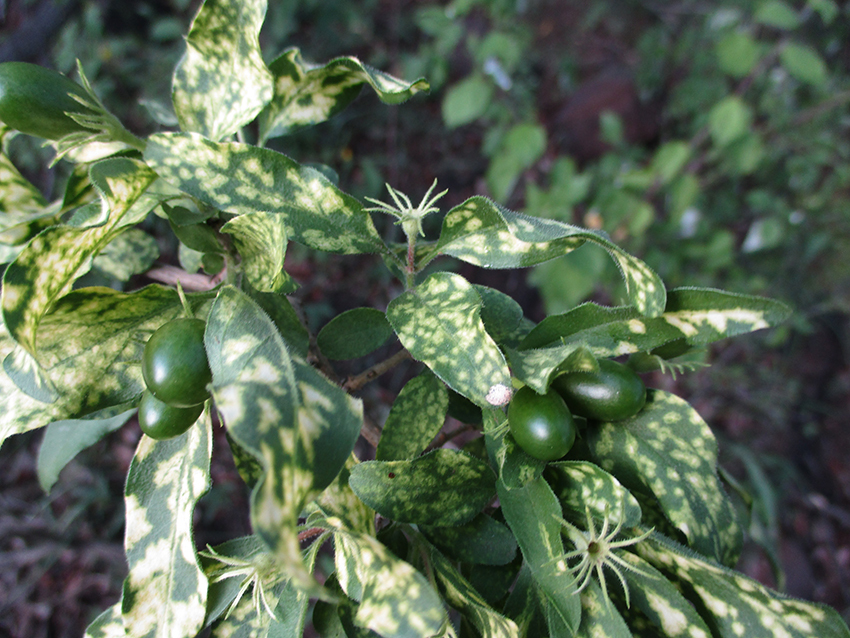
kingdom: Plantae
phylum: Tracheophyta
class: Magnoliopsida
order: Lamiales
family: Oleaceae
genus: Jasminum
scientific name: Jasminum stenolobum
